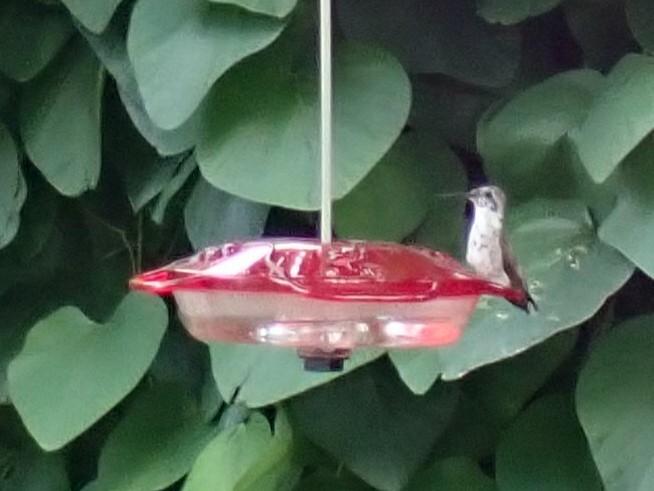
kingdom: Animalia
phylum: Chordata
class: Aves
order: Apodiformes
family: Trochilidae
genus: Archilochus
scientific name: Archilochus colubris
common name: Ruby-throated hummingbird
